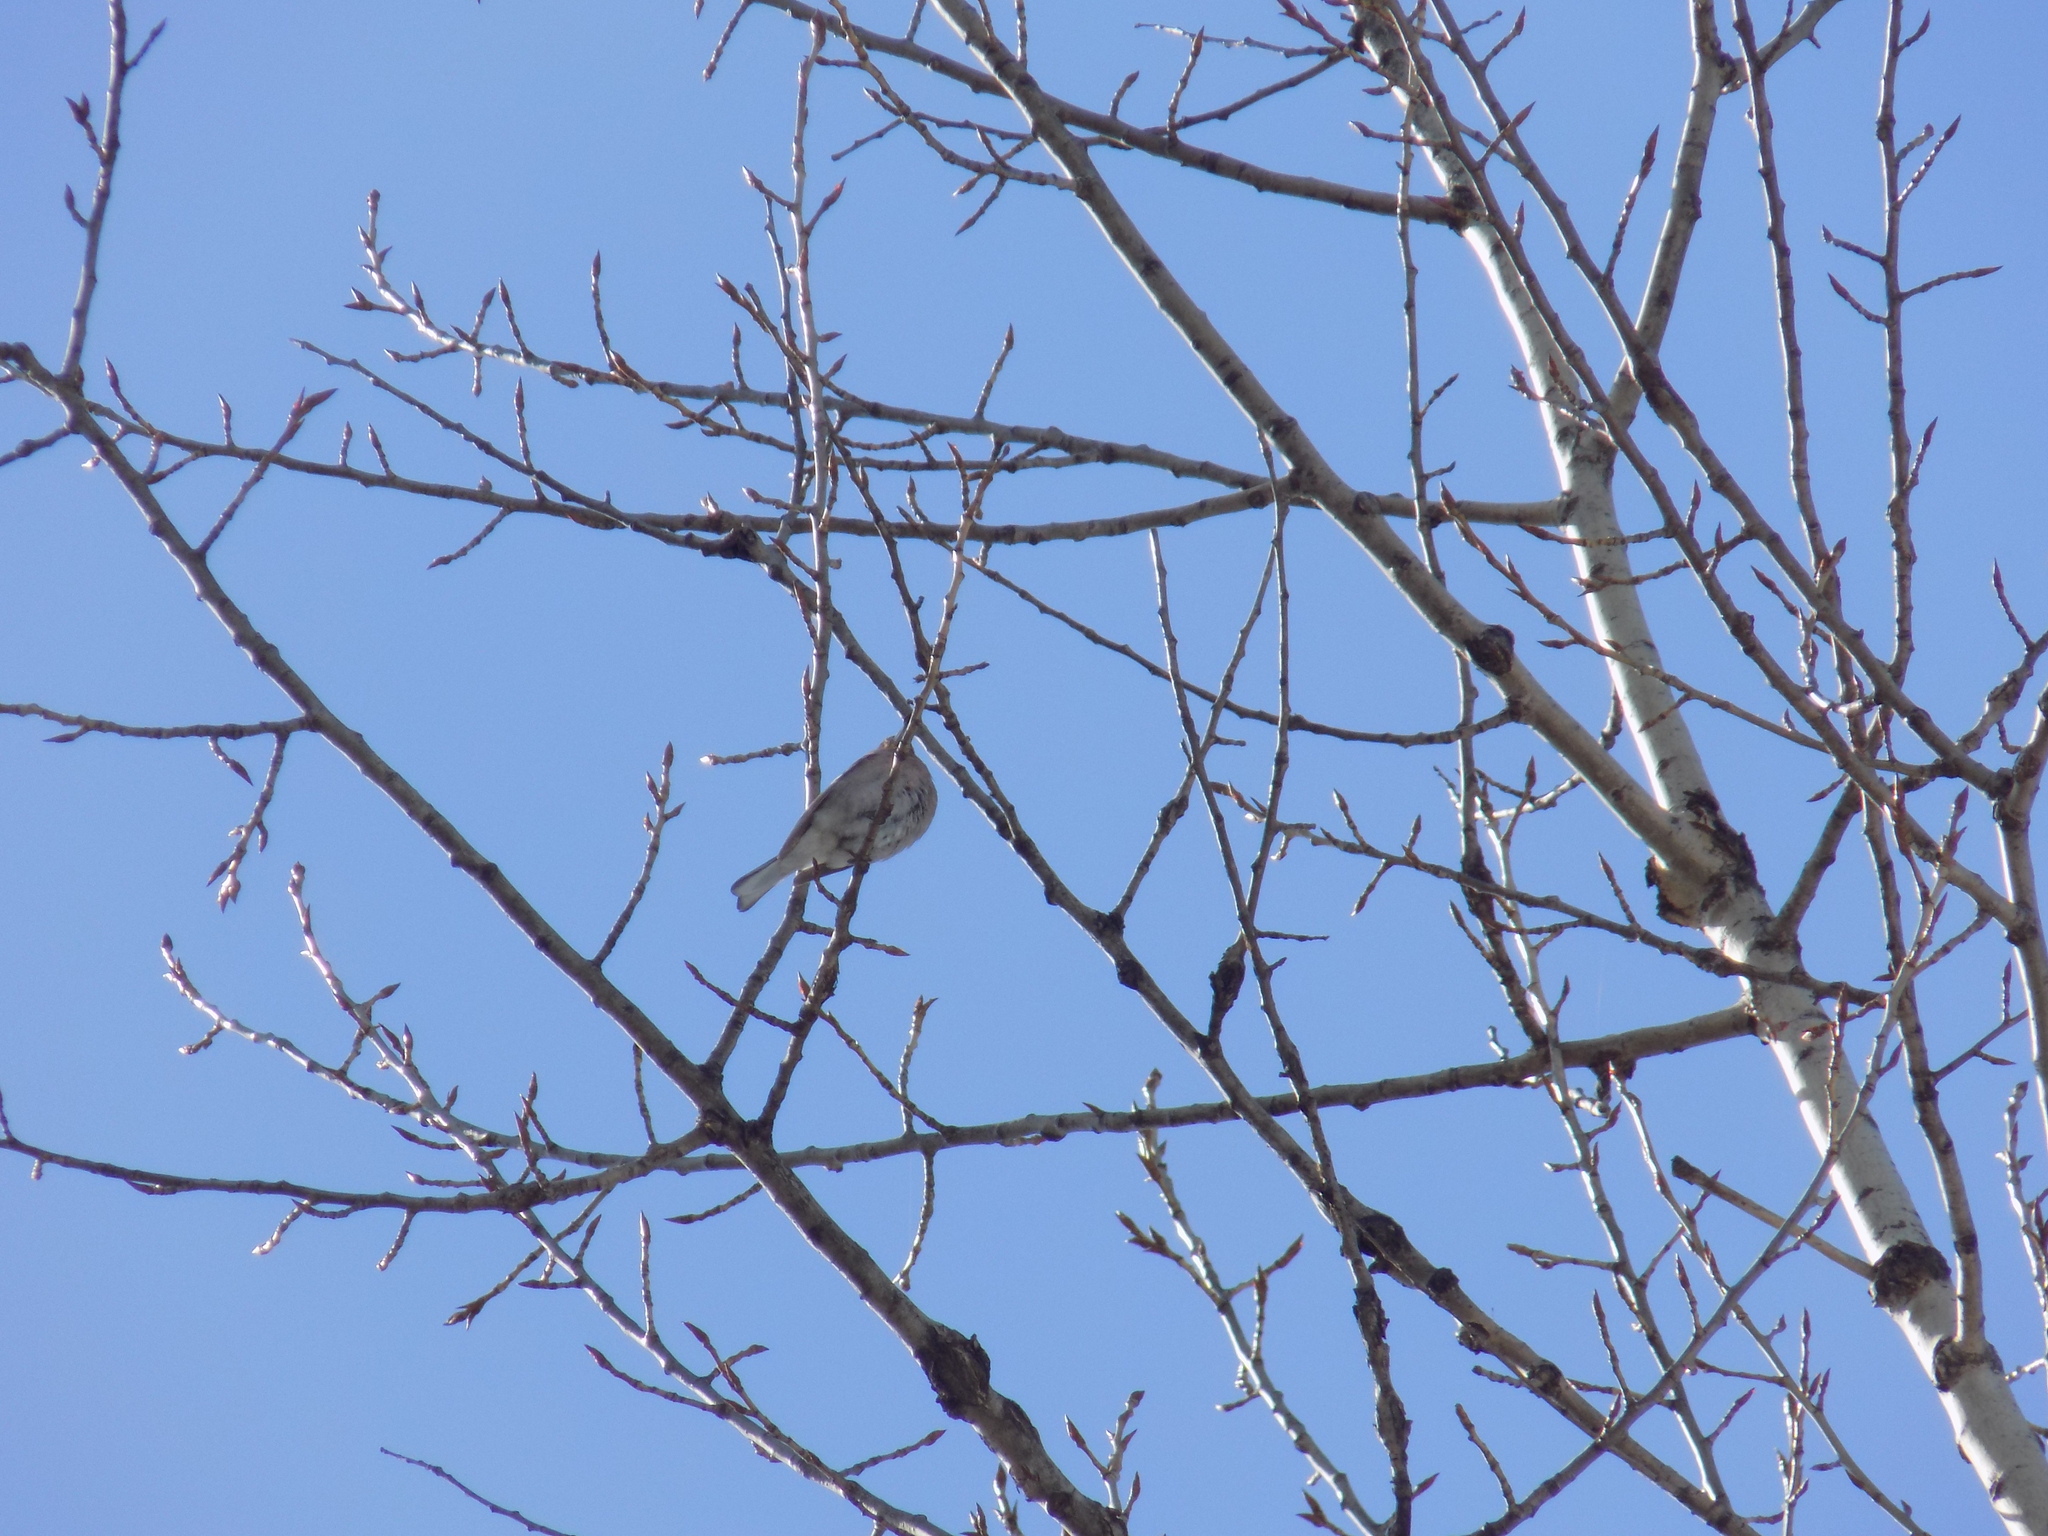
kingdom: Animalia
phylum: Chordata
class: Aves
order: Passeriformes
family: Turdidae
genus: Turdus
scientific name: Turdus atrogularis
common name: Black-throated thrush
